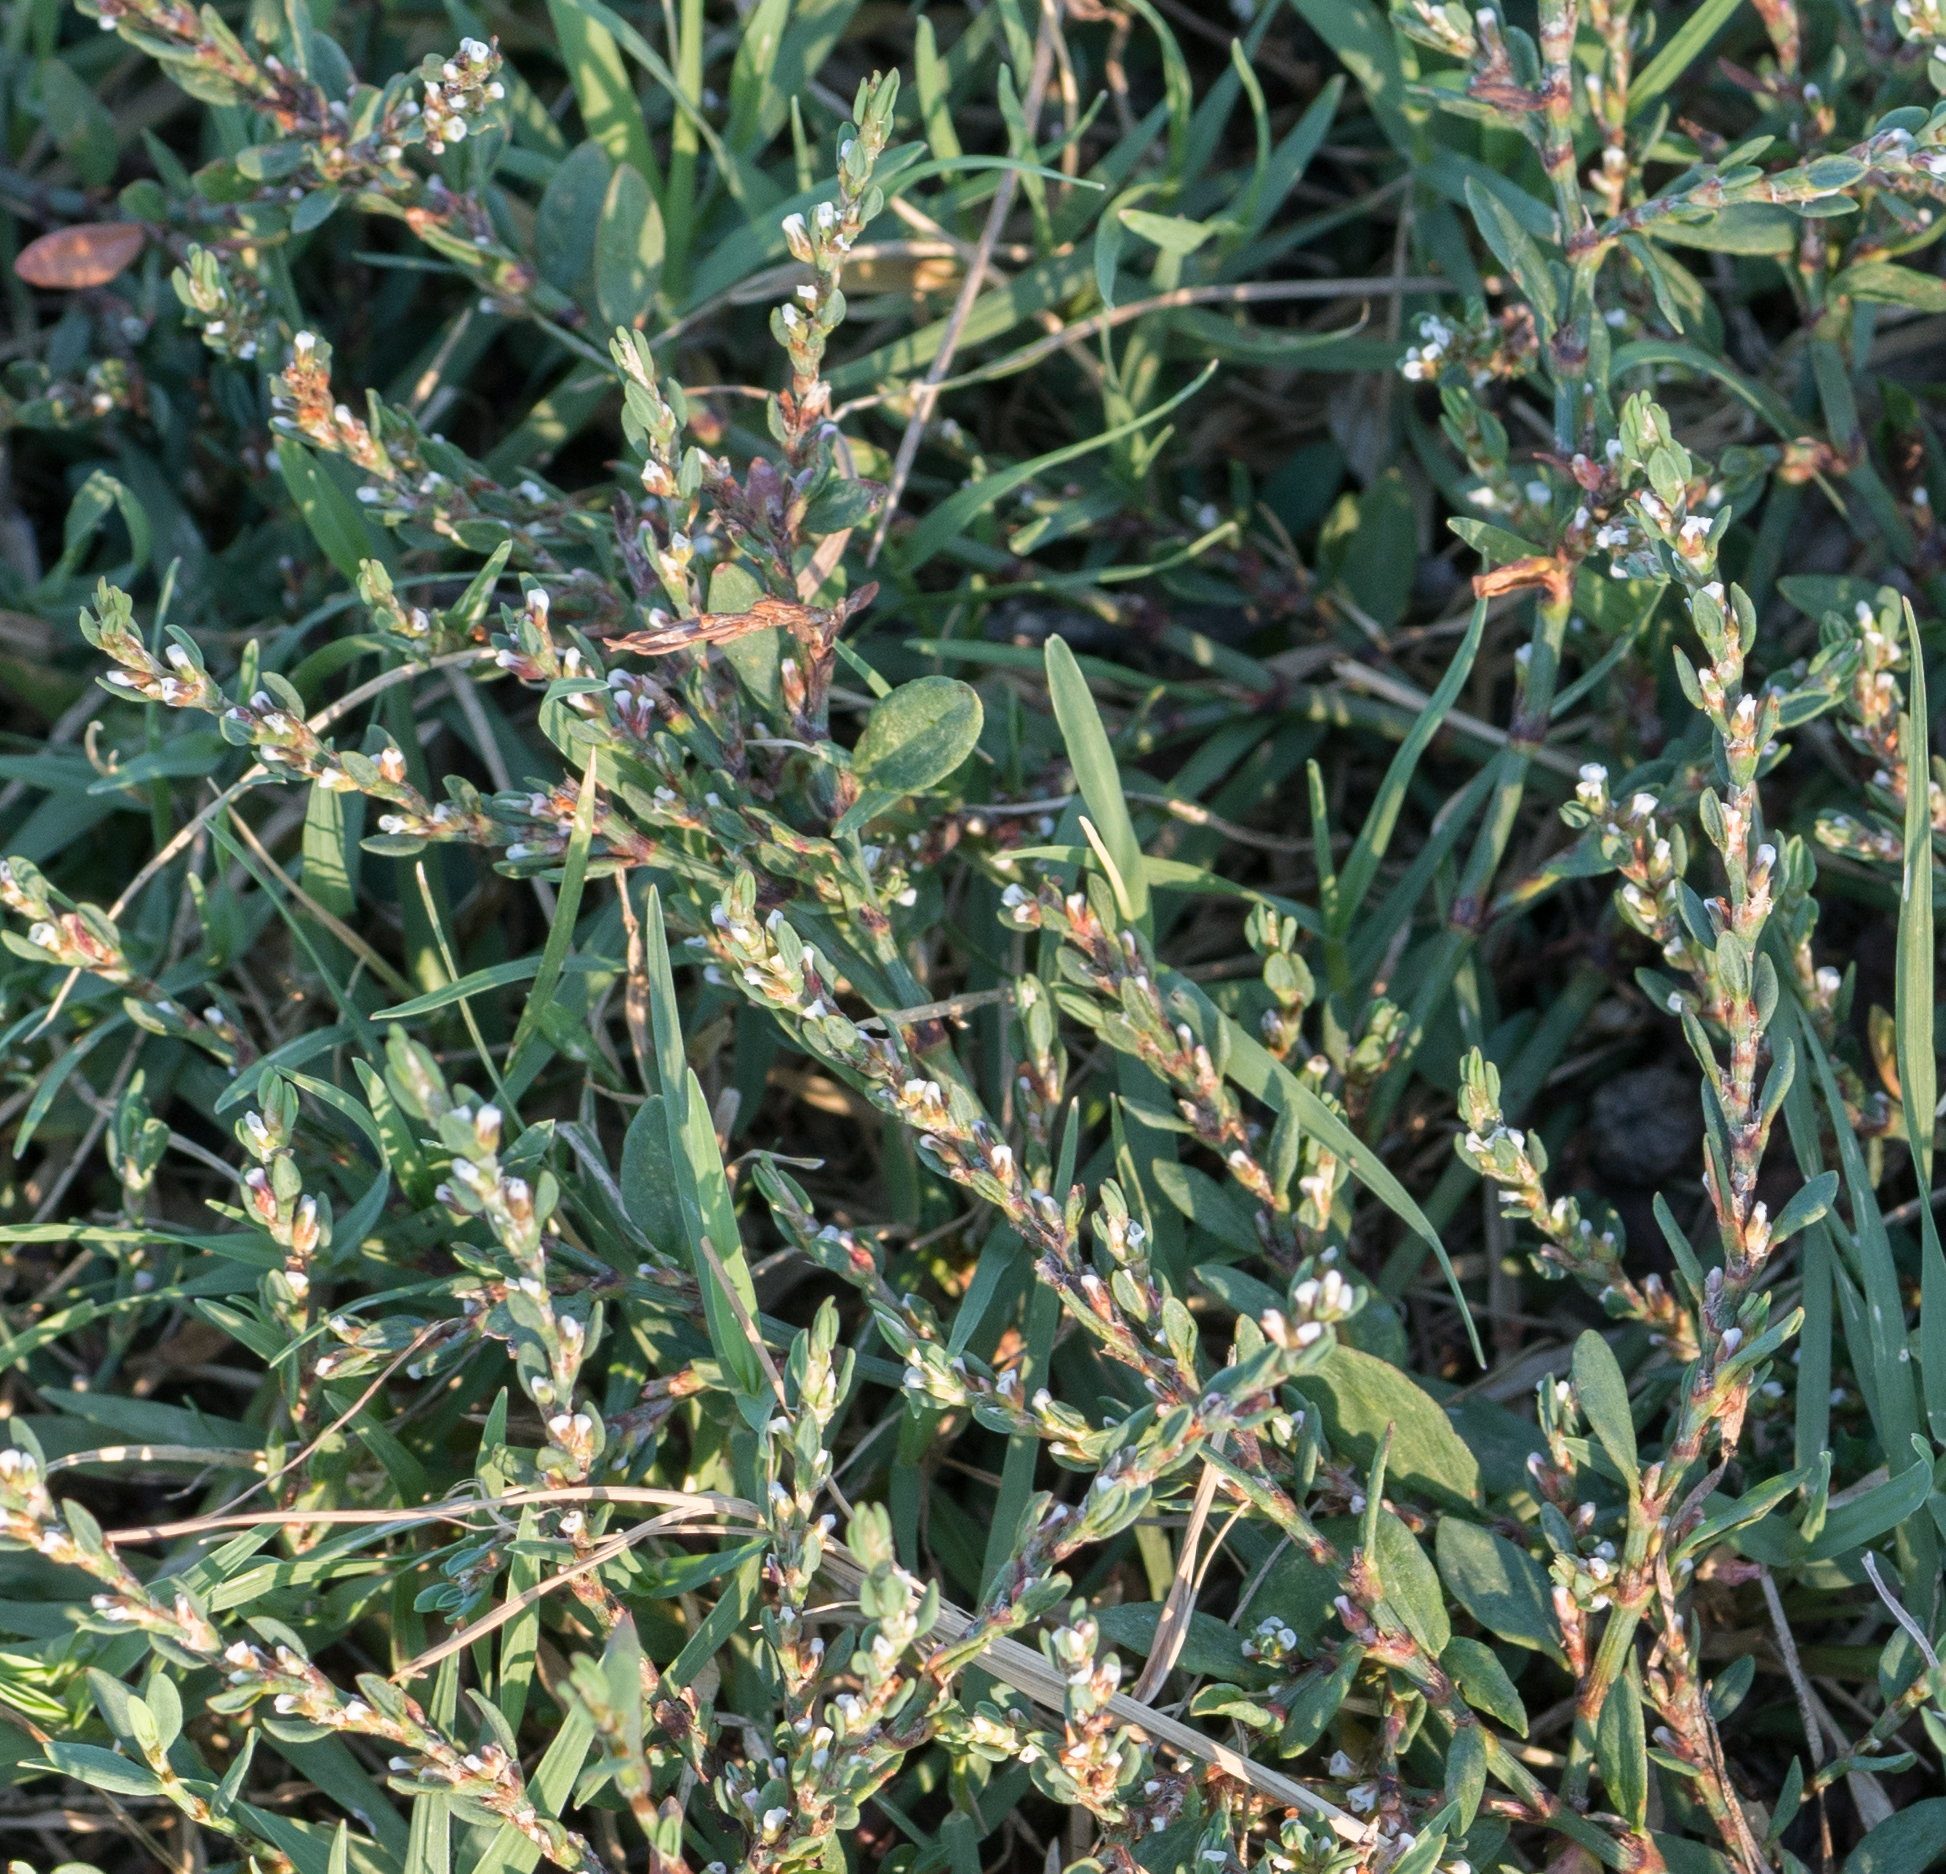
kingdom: Plantae
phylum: Tracheophyta
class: Magnoliopsida
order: Caryophyllales
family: Polygonaceae
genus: Polygonum
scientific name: Polygonum aviculare
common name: Prostrate knotweed
